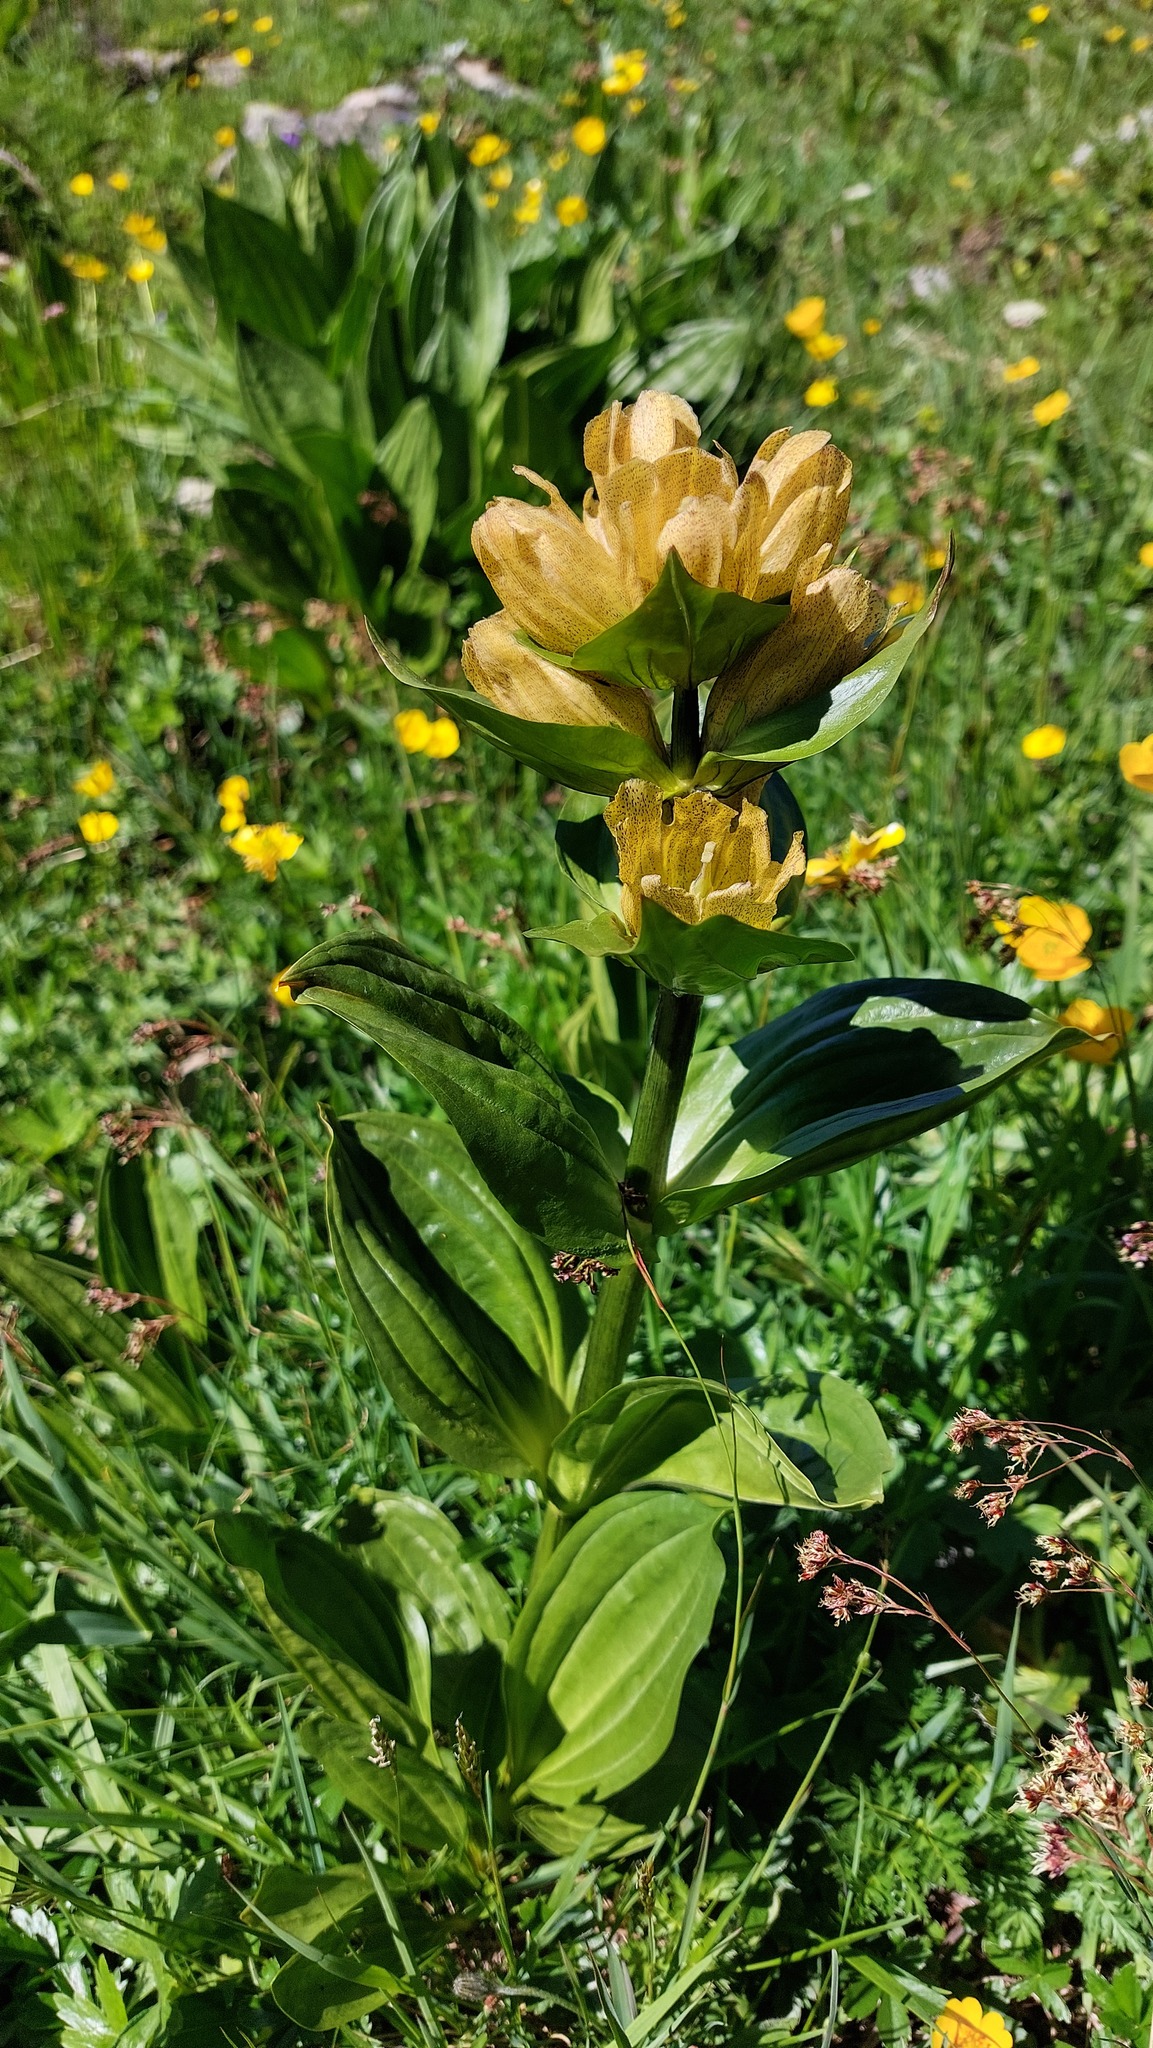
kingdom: Plantae
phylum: Tracheophyta
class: Magnoliopsida
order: Gentianales
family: Gentianaceae
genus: Gentiana
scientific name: Gentiana punctata
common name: Spotted gentian
